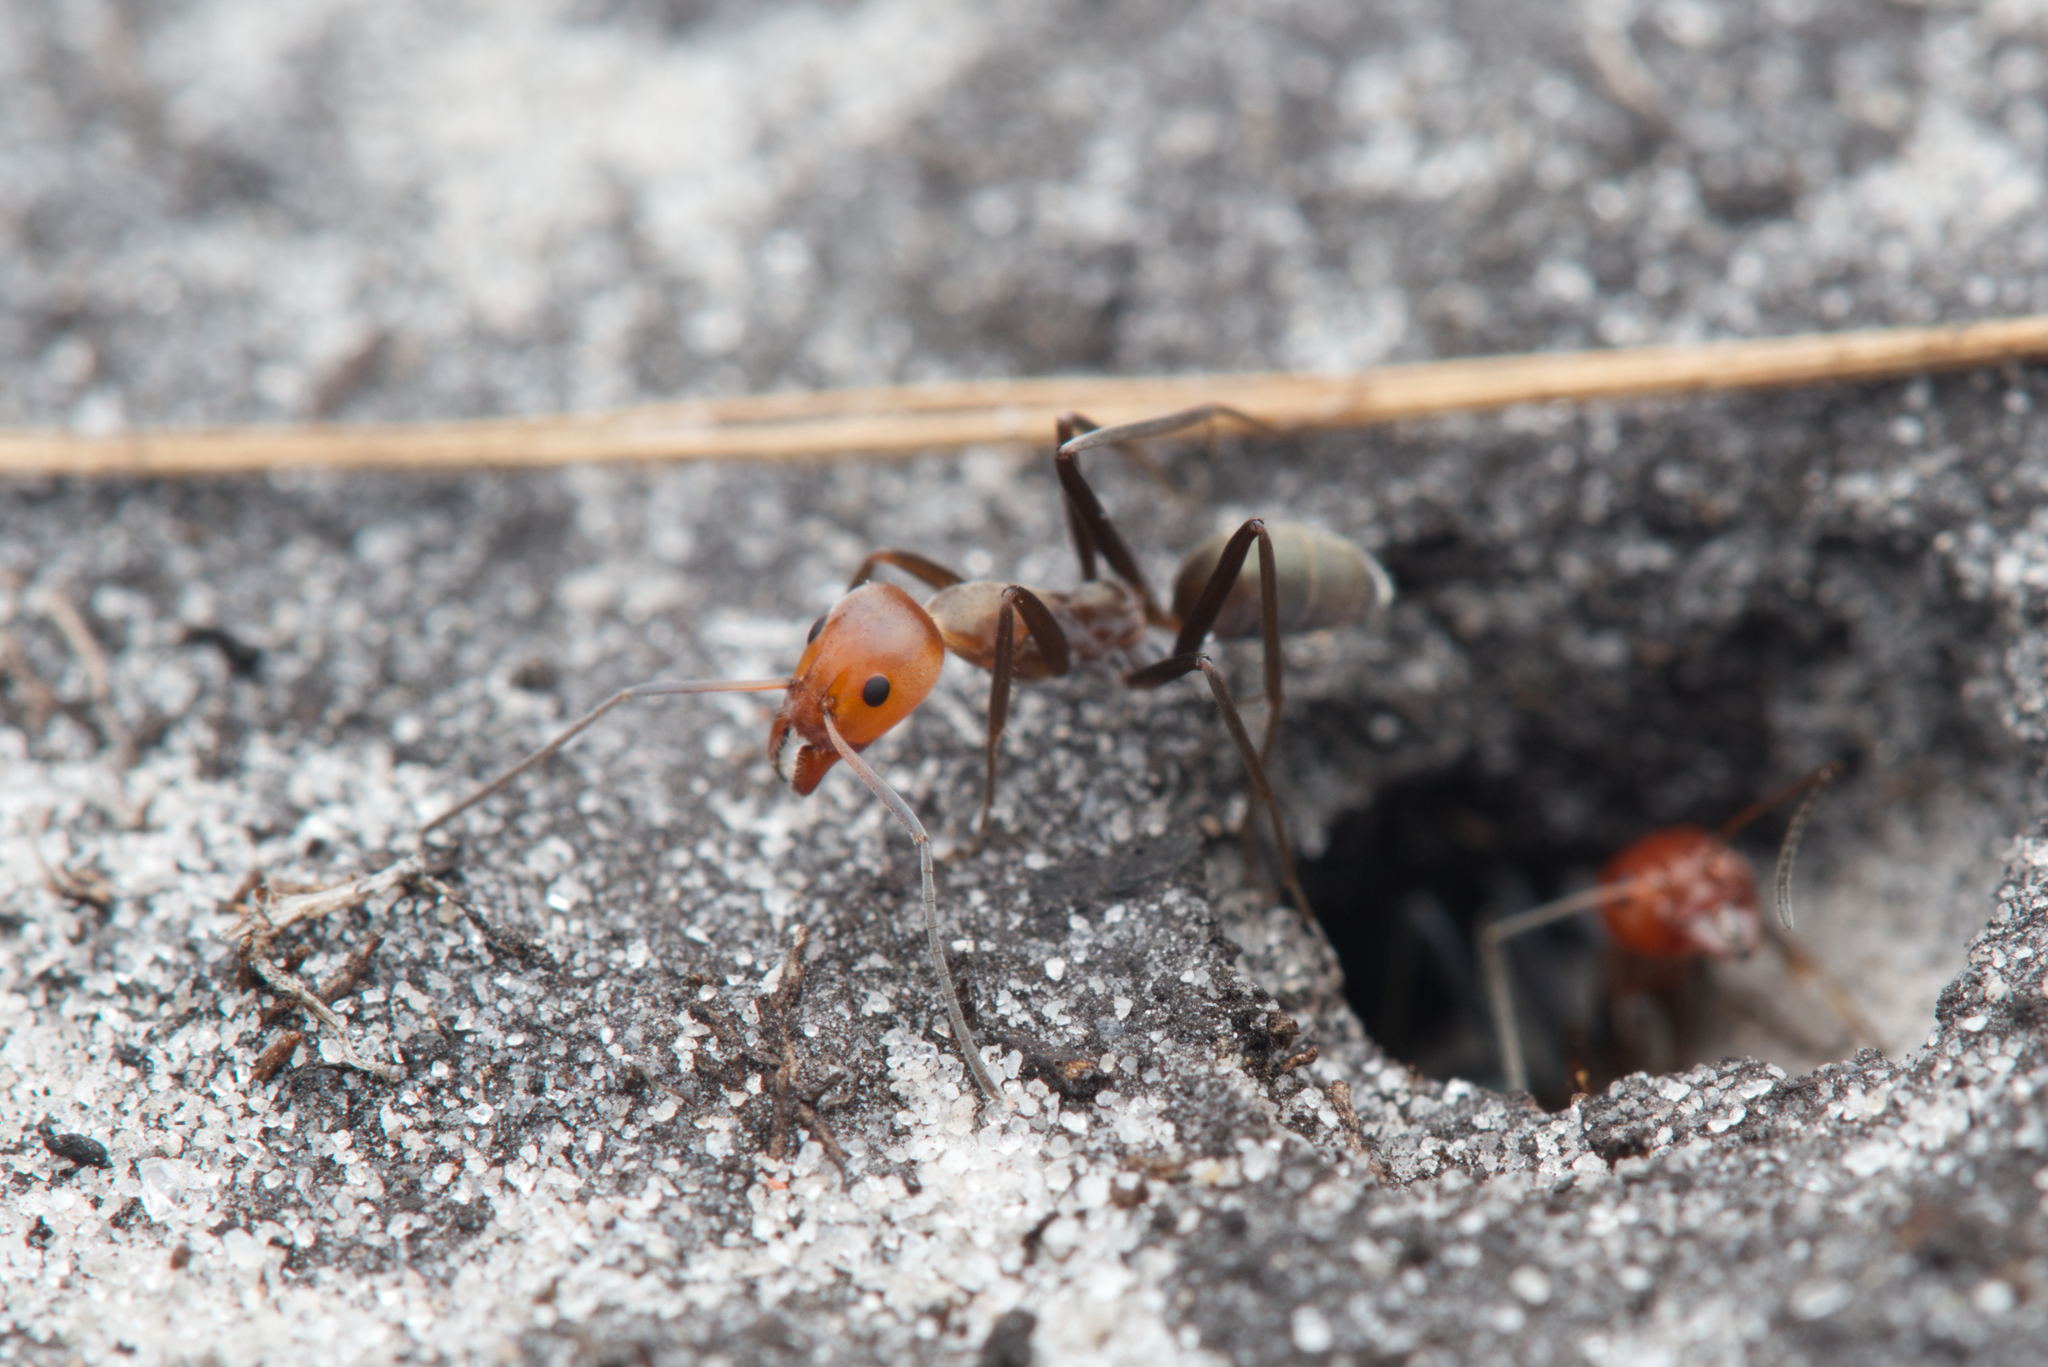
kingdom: Animalia
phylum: Arthropoda
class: Insecta
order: Hymenoptera
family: Formicidae
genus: Iridomyrmex
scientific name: Iridomyrmex
